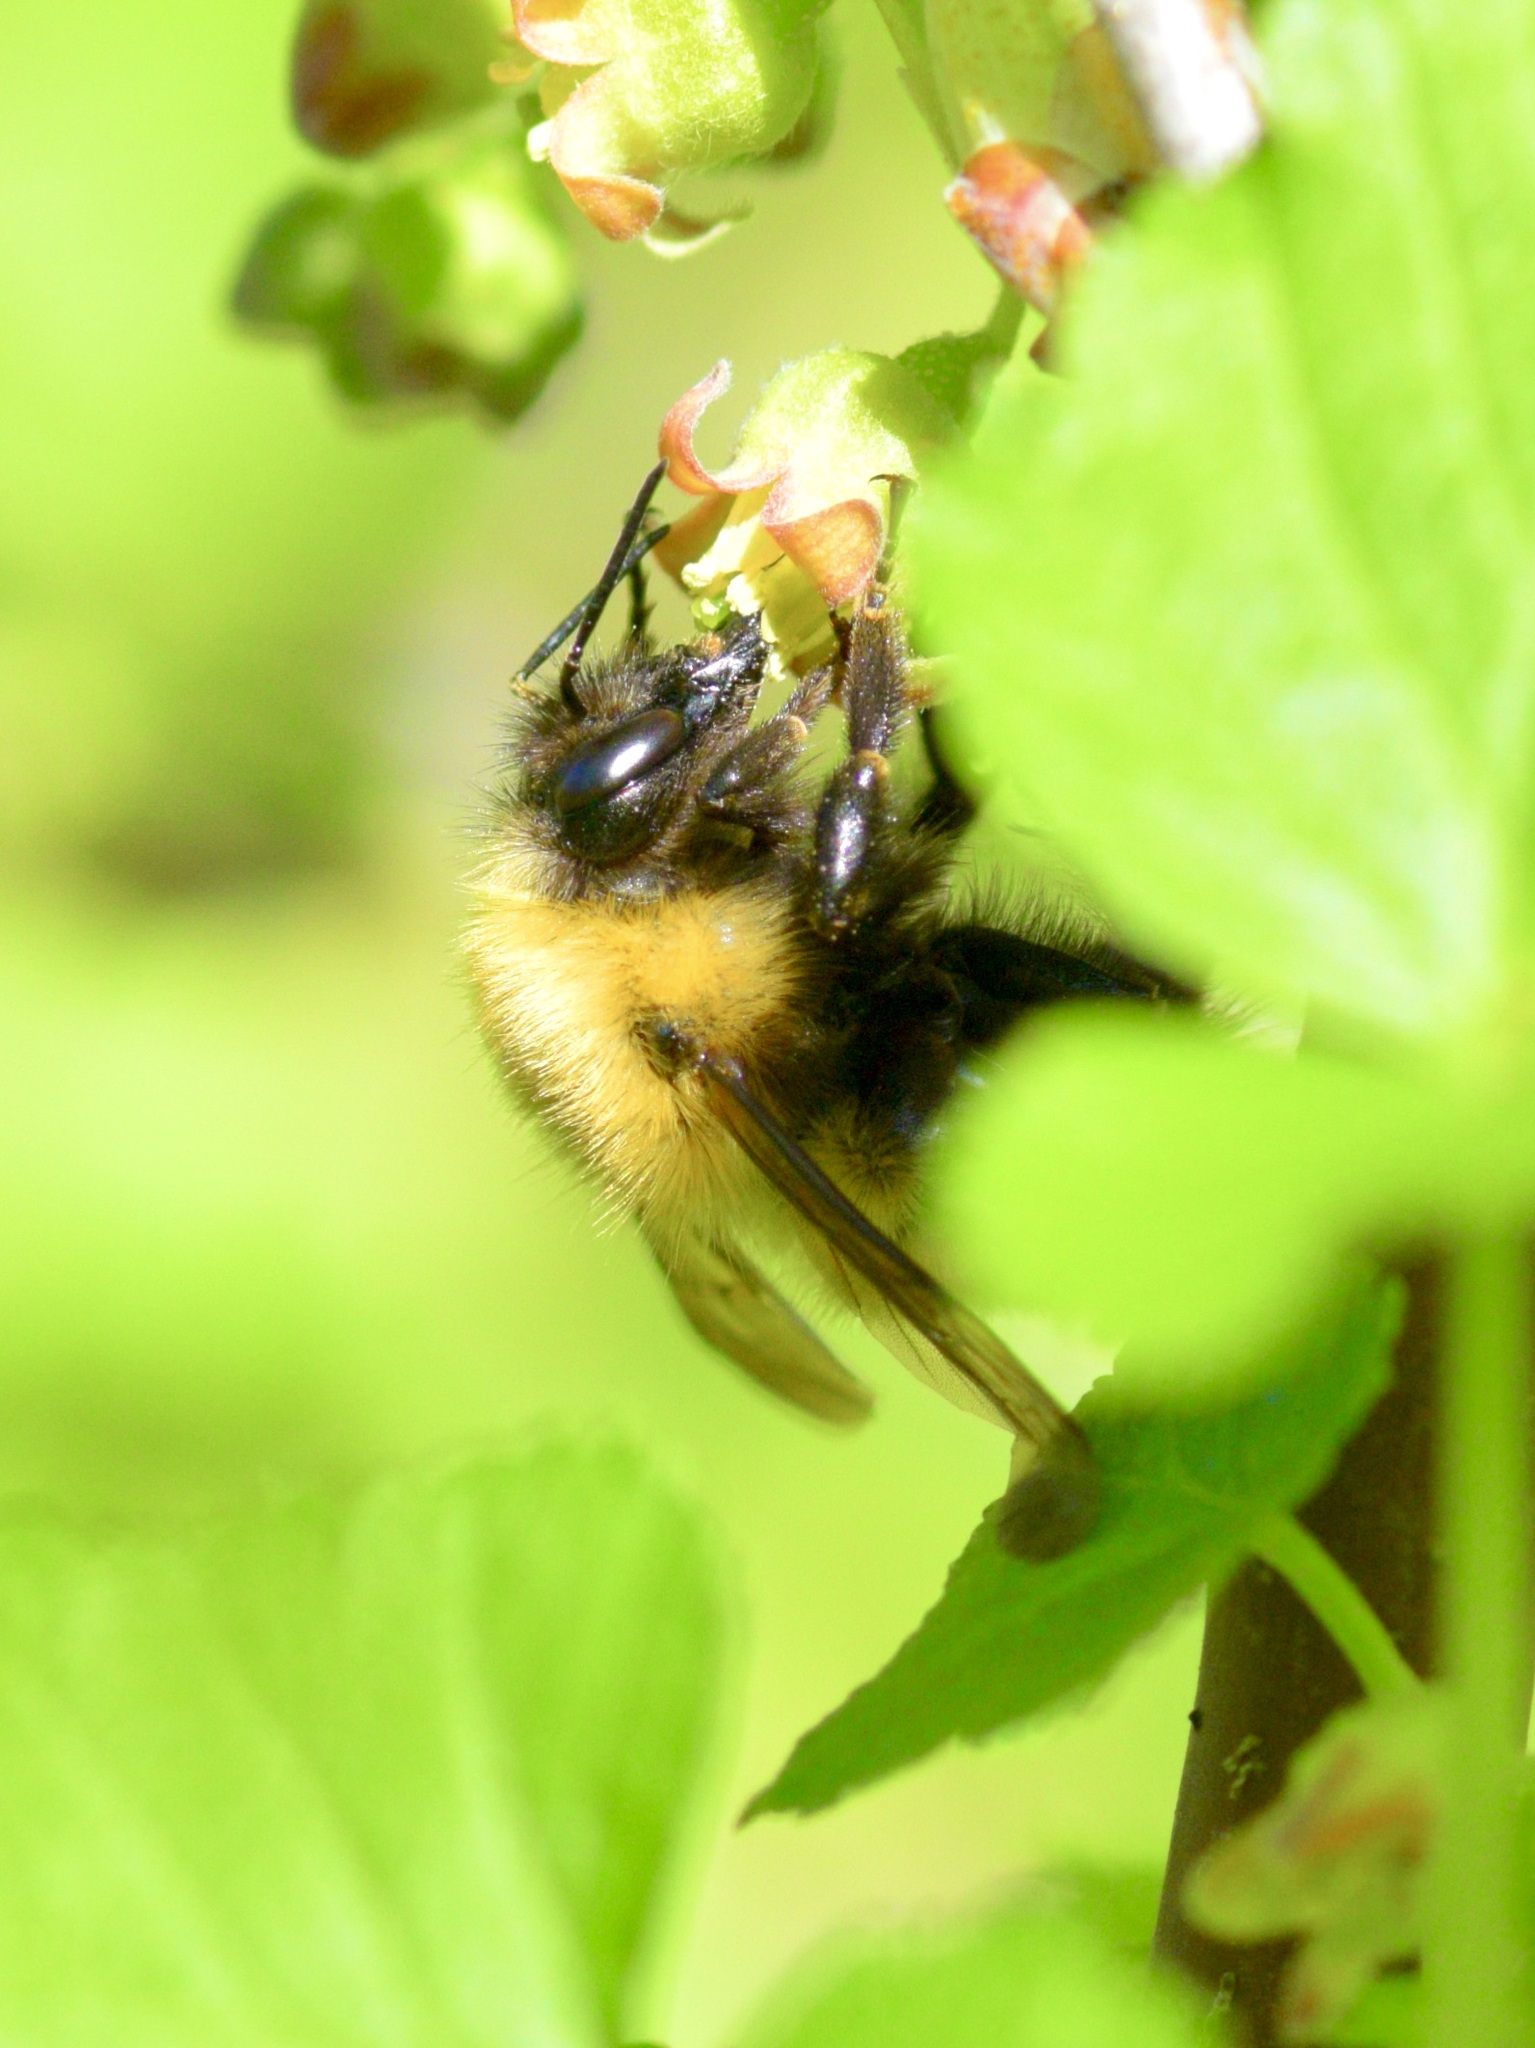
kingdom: Animalia
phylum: Arthropoda
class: Insecta
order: Hymenoptera
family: Apidae
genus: Bombus
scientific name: Bombus perplexus
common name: Confusing bumble bee
